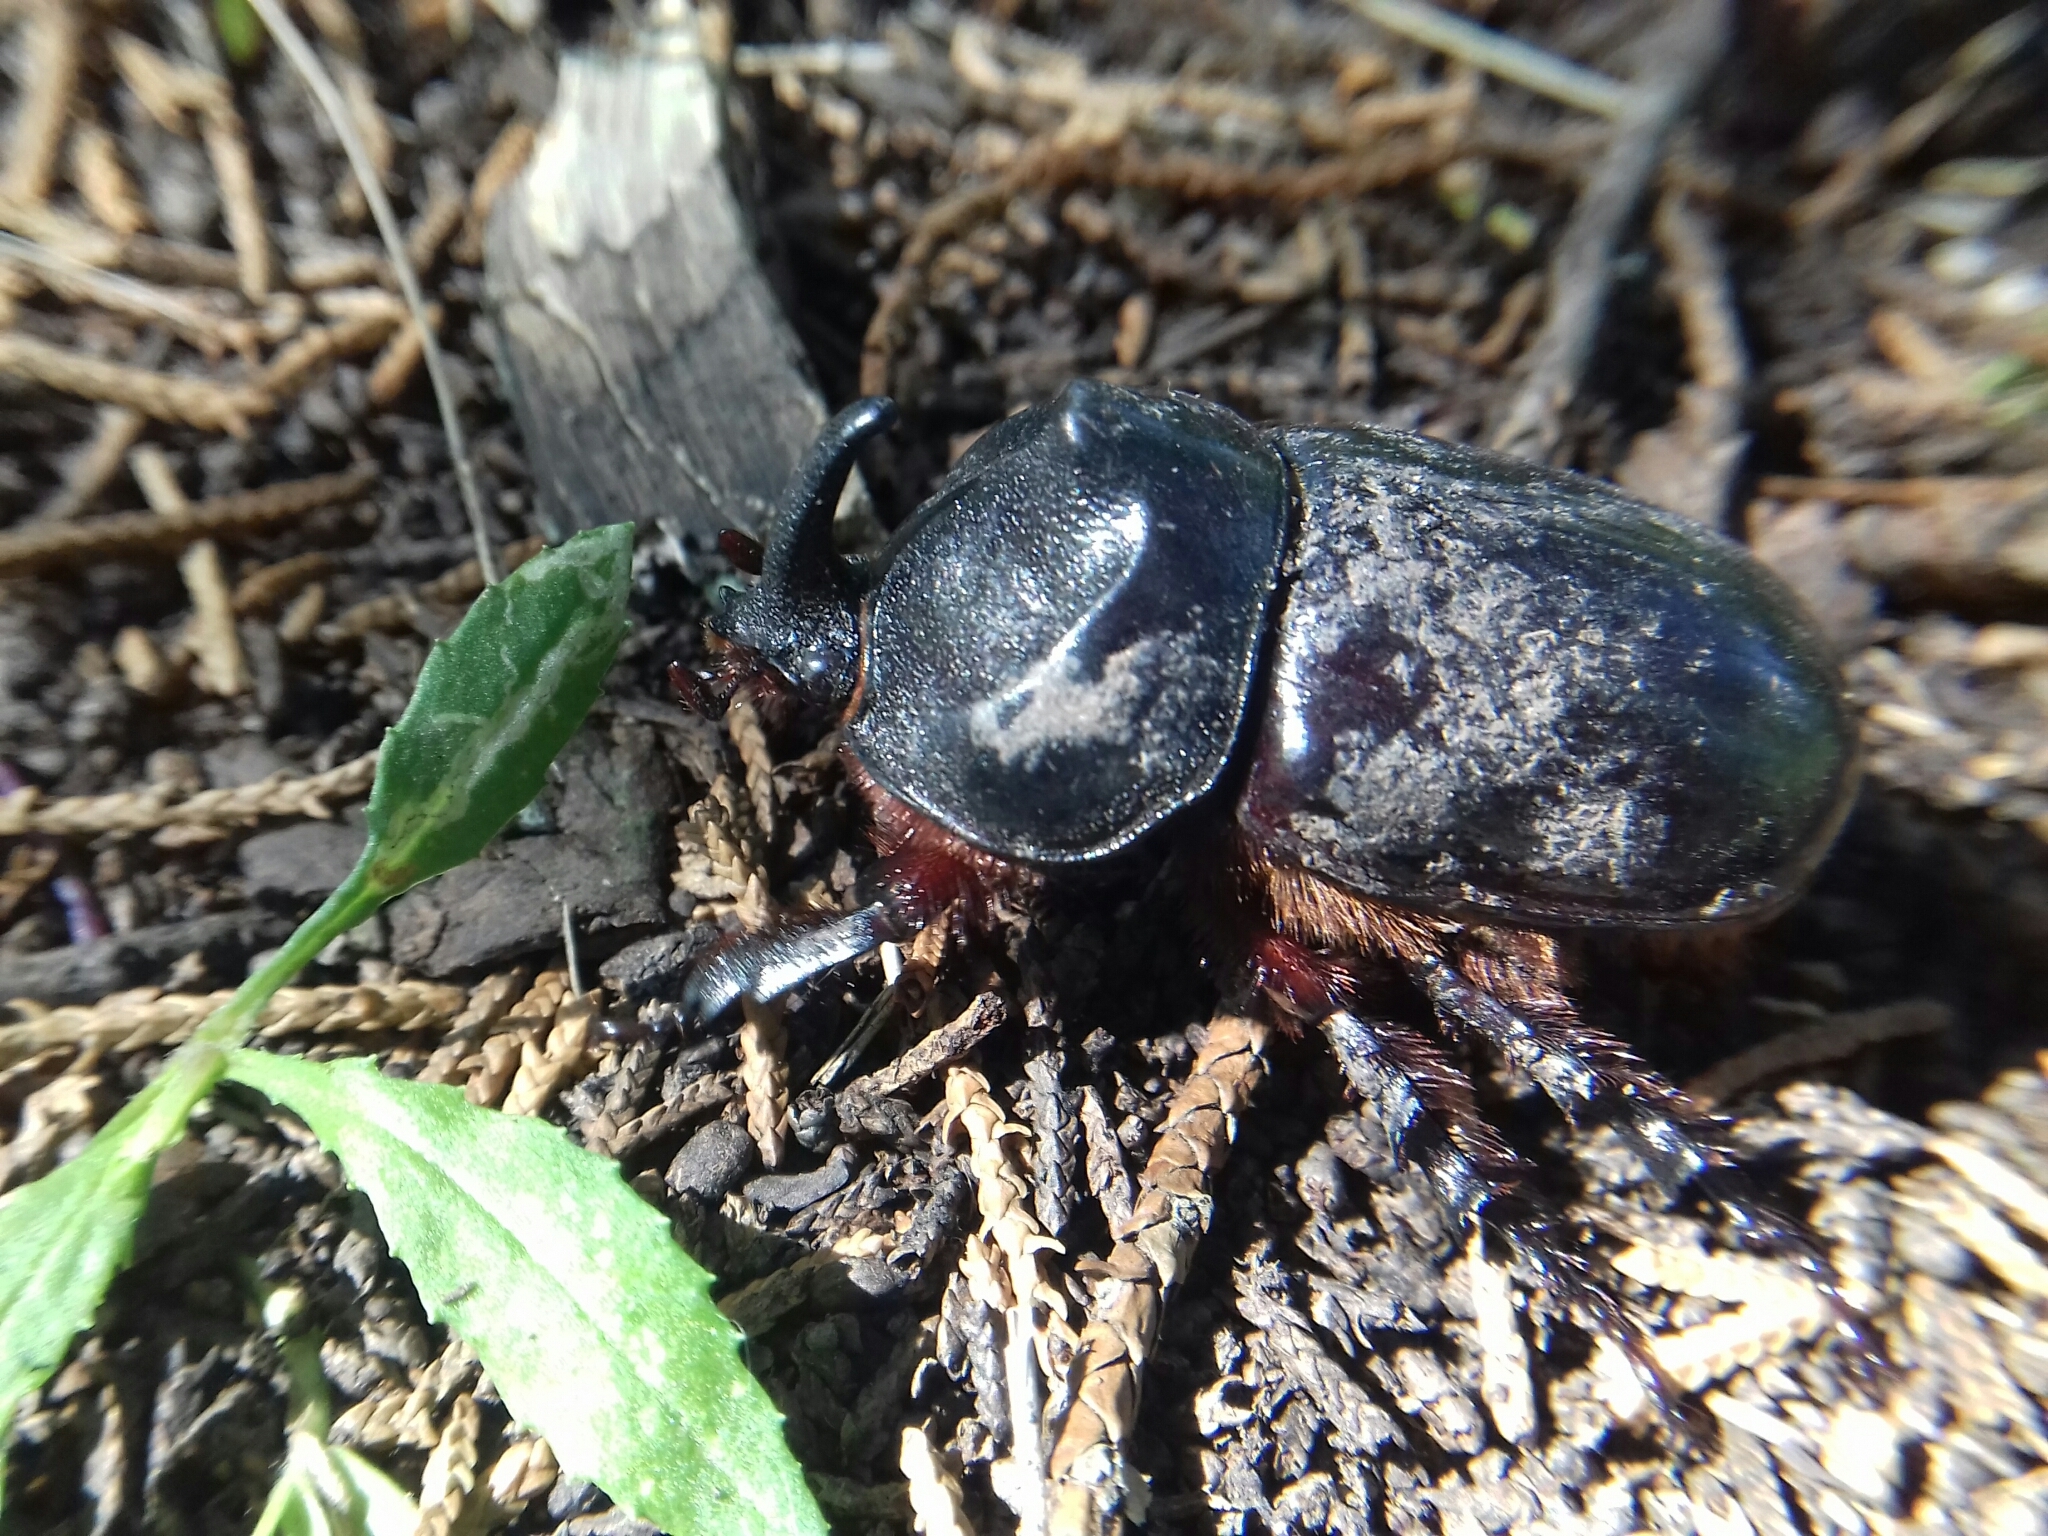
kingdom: Animalia
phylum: Arthropoda
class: Insecta
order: Coleoptera
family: Scarabaeidae
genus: Xyloryctes
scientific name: Xyloryctes thestalus
